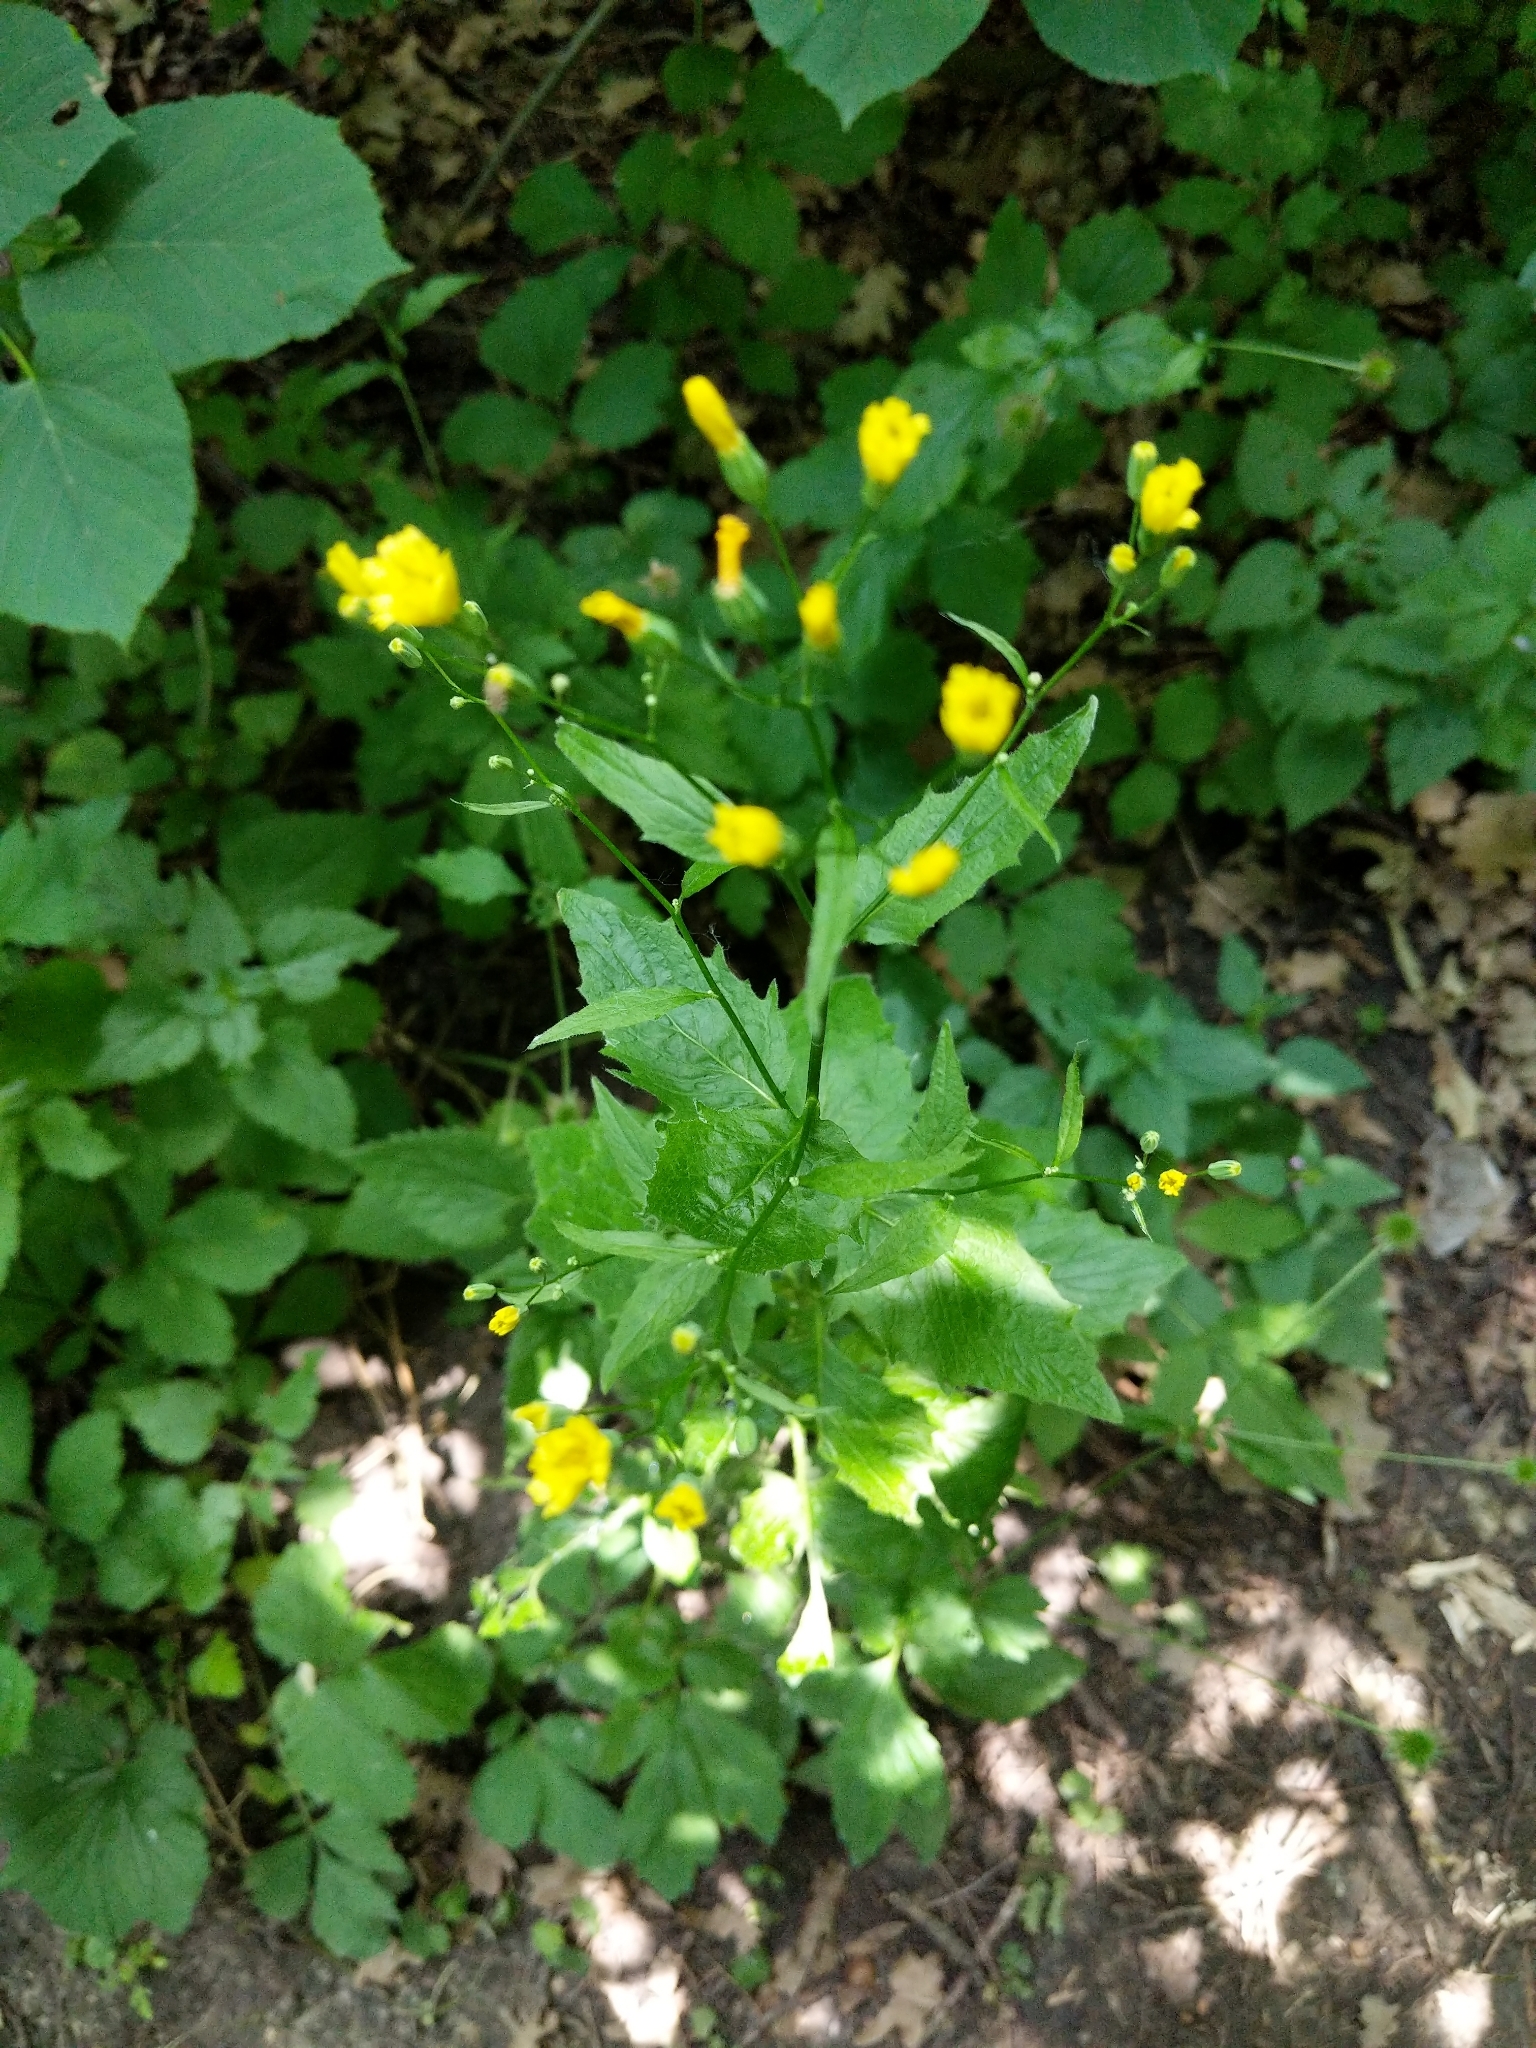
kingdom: Plantae
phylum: Tracheophyta
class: Magnoliopsida
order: Asterales
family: Asteraceae
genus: Lapsana
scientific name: Lapsana communis
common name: Nipplewort
